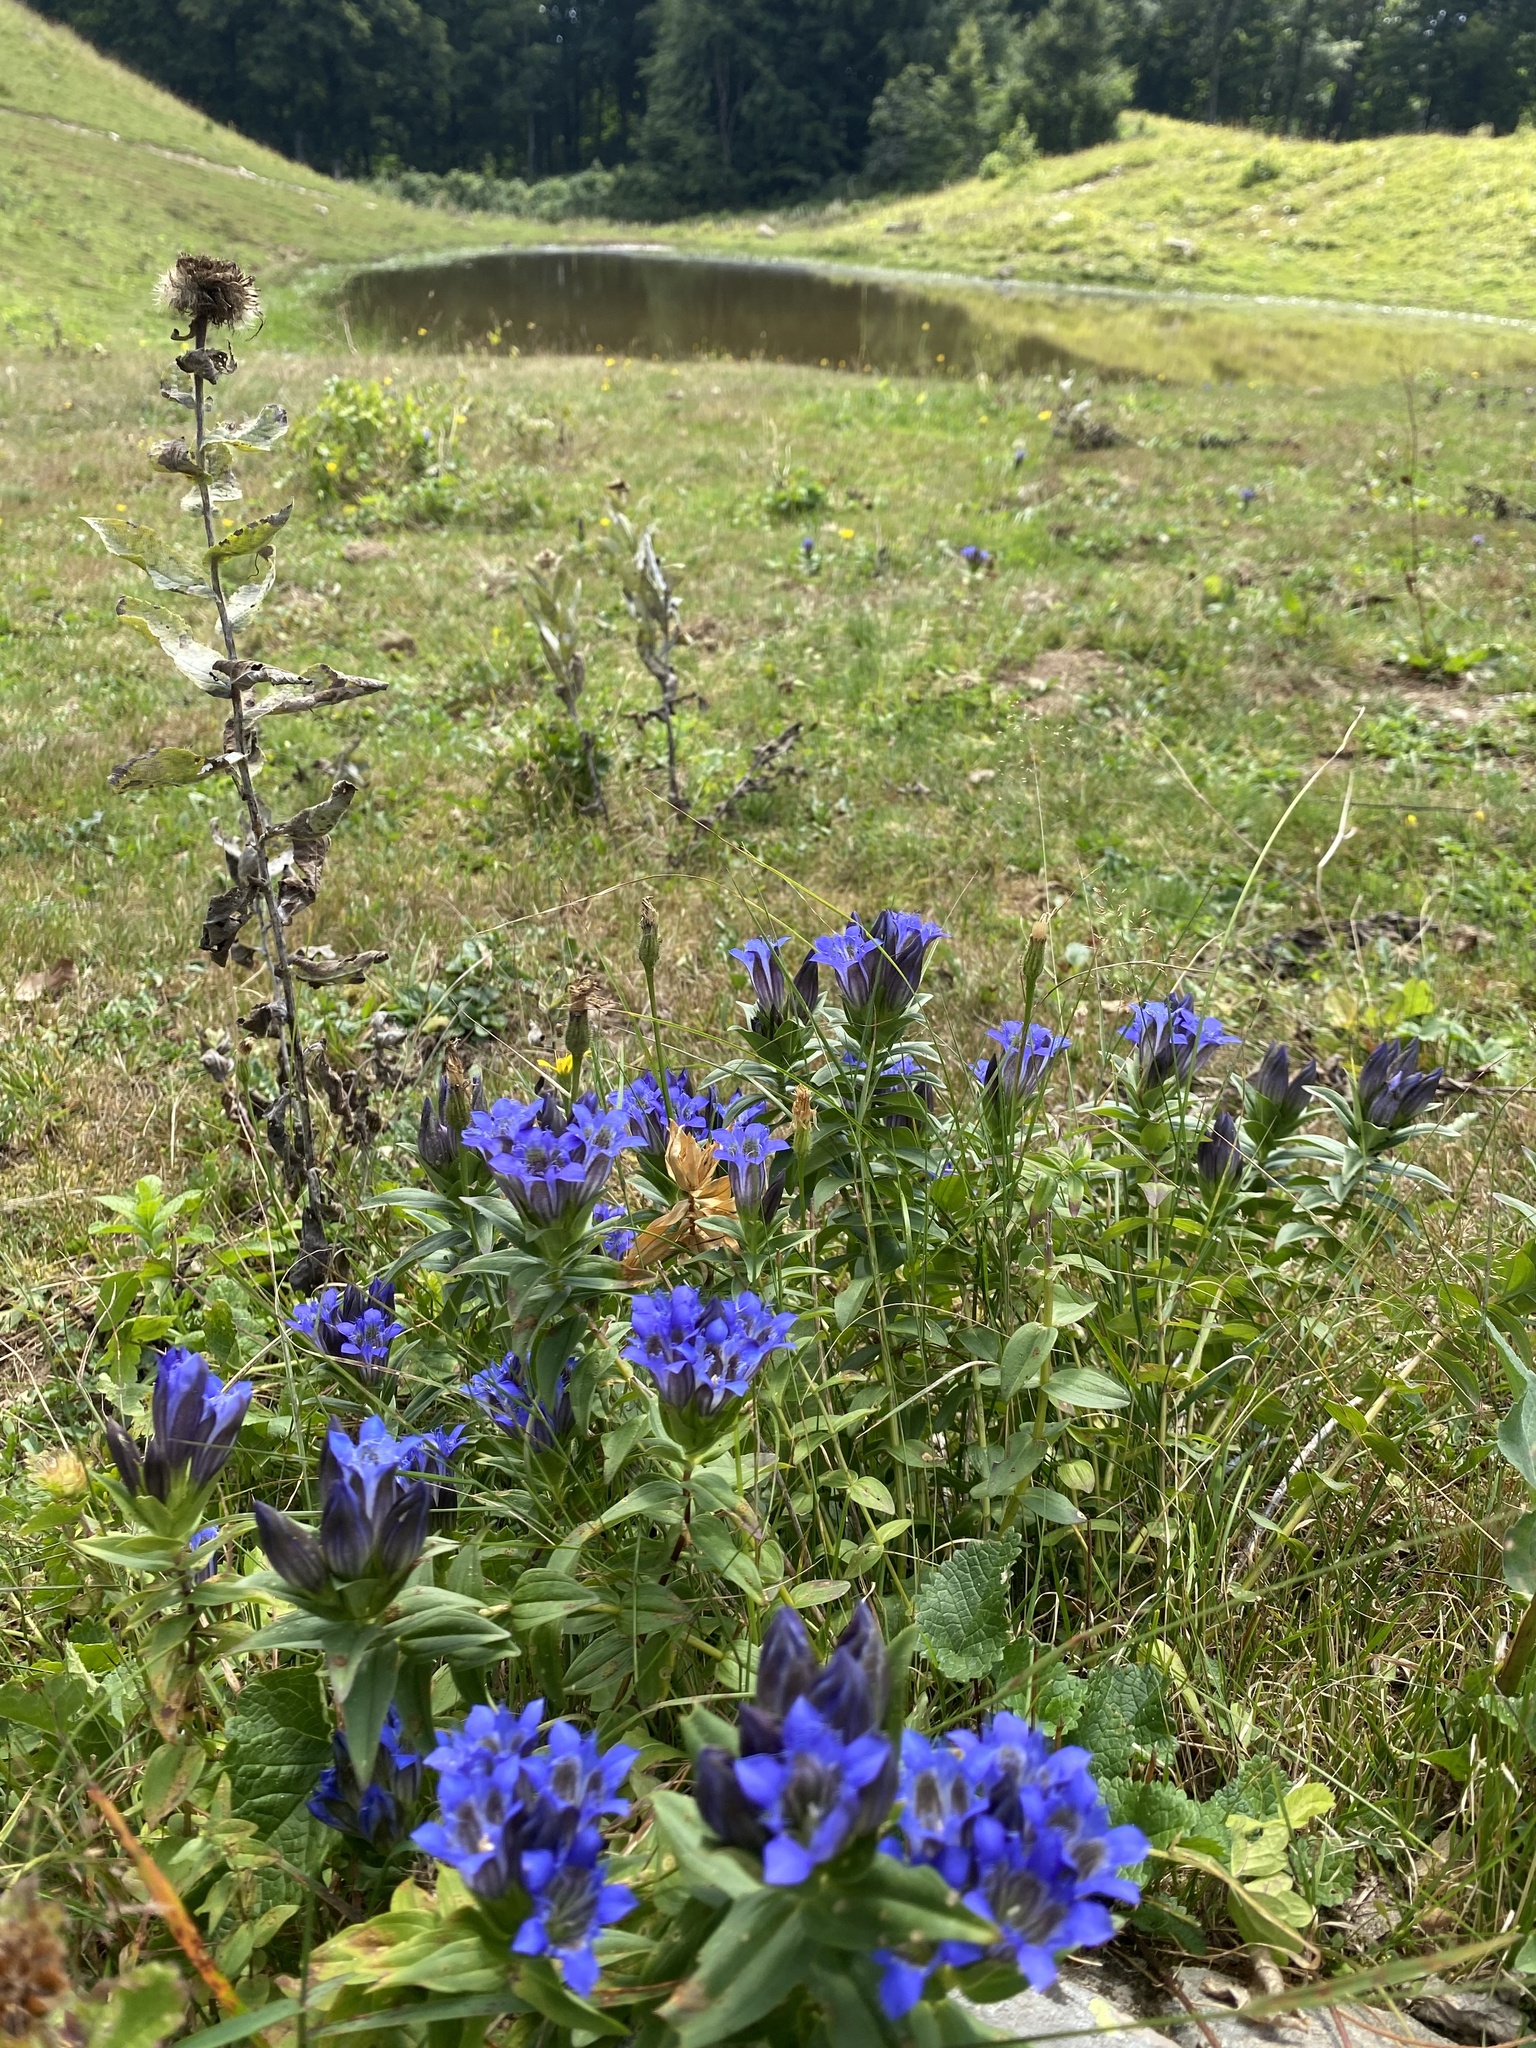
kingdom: Plantae
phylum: Tracheophyta
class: Magnoliopsida
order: Gentianales
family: Gentianaceae
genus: Gentiana
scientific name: Gentiana septemfida
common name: Crested gentian
